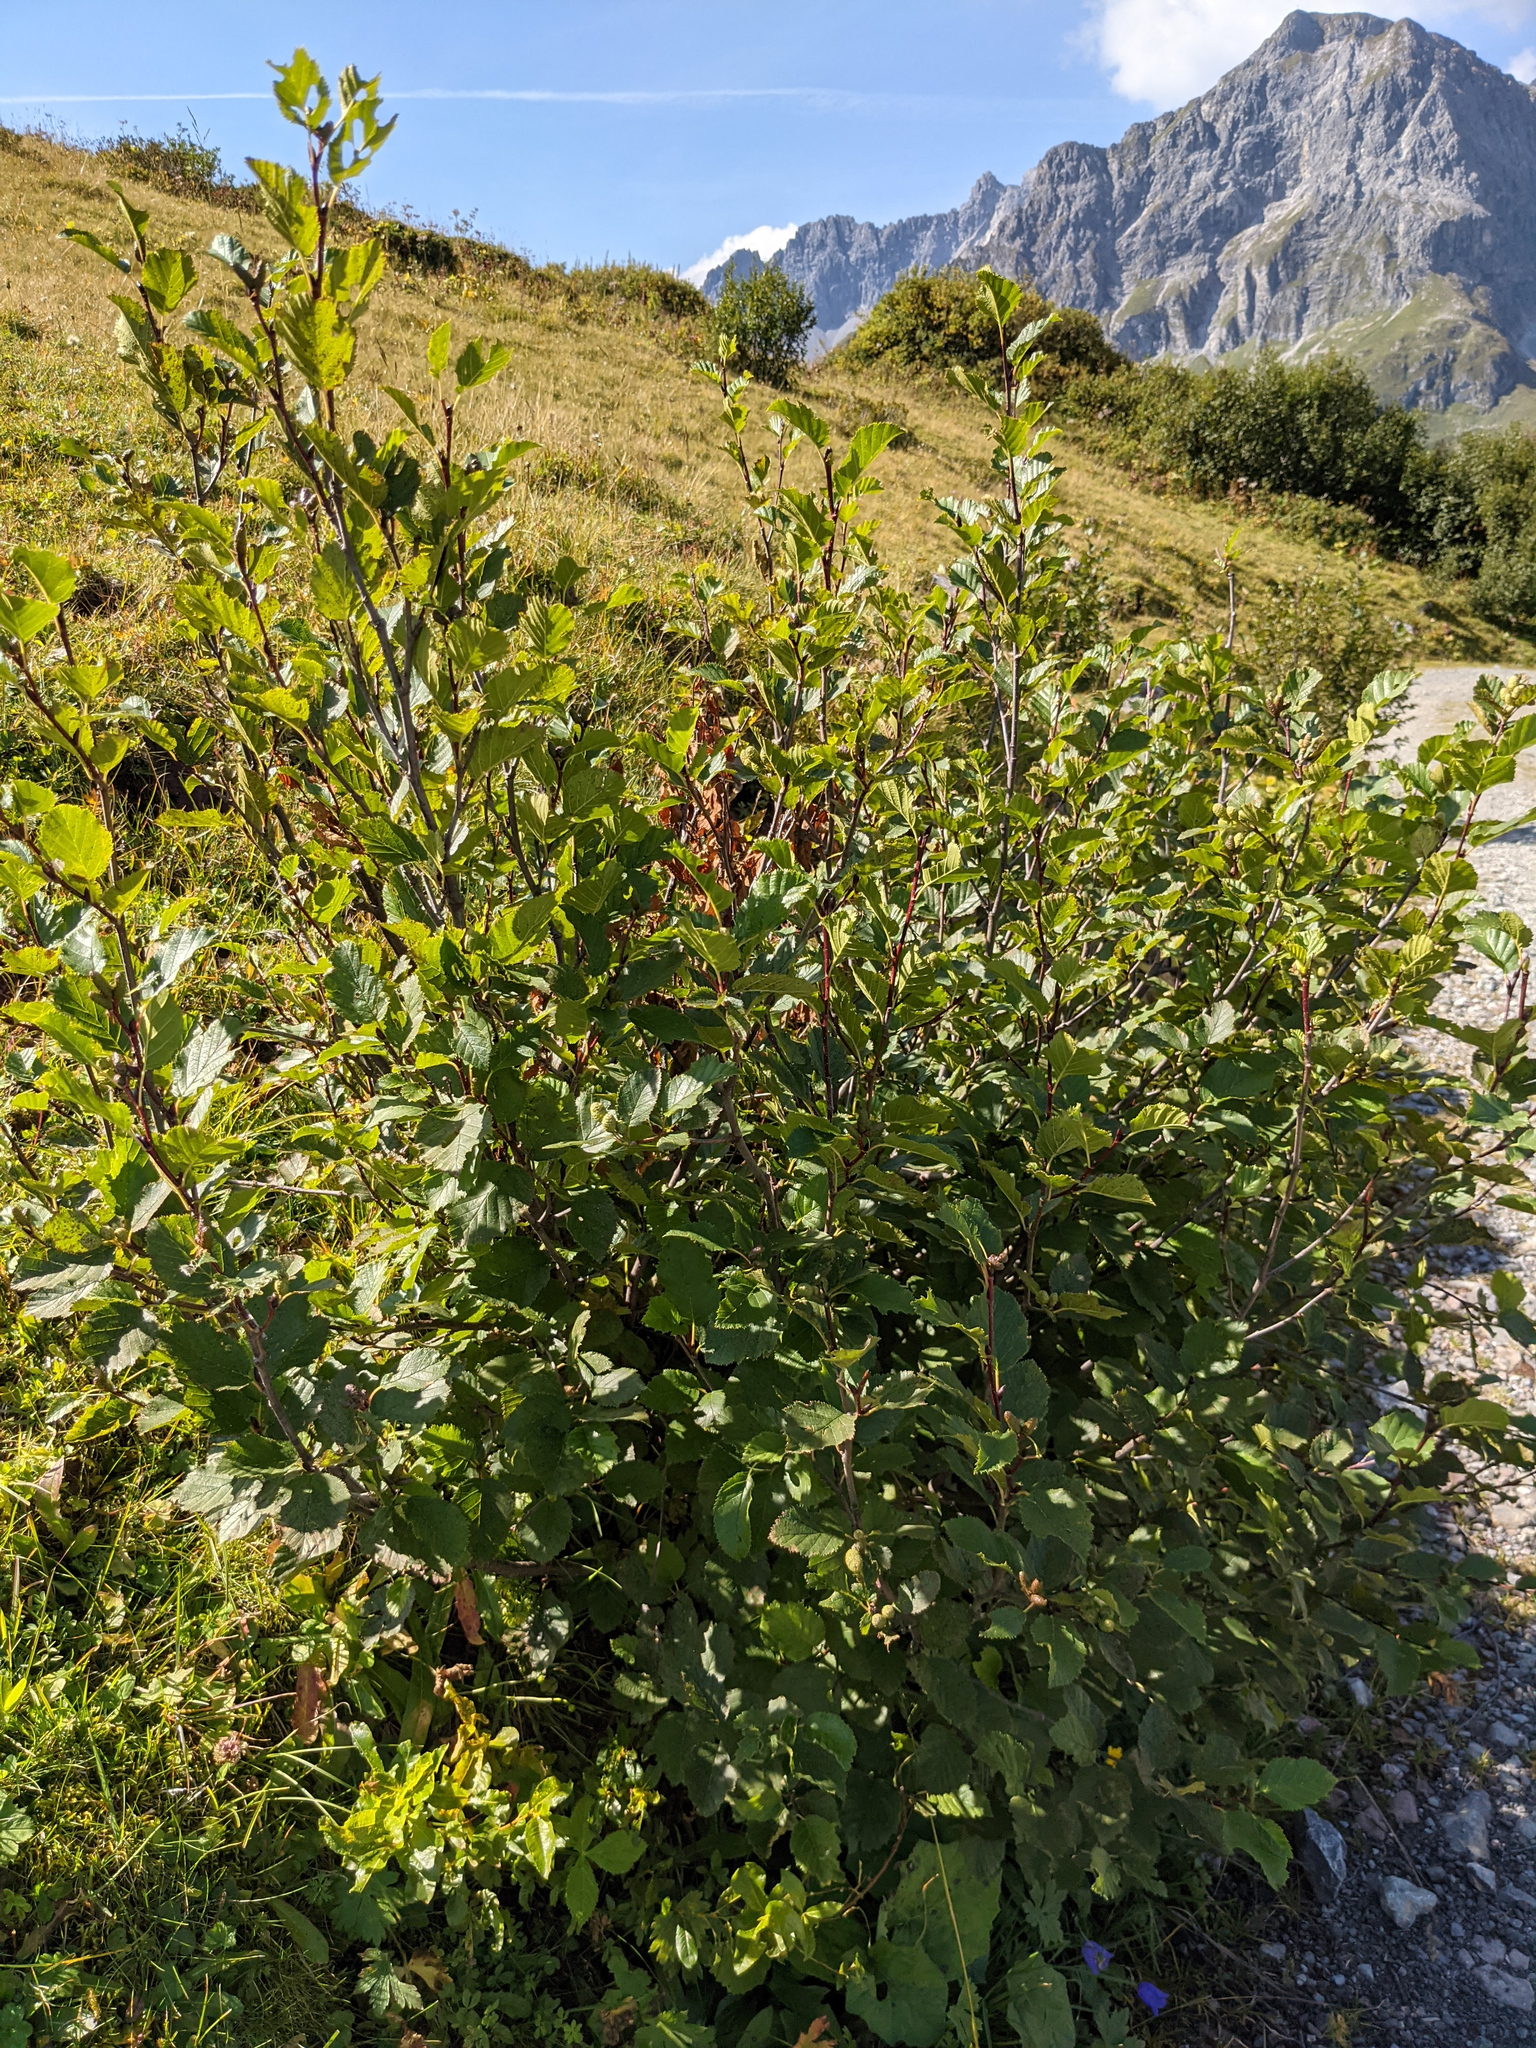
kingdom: Plantae
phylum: Tracheophyta
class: Magnoliopsida
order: Fagales
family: Betulaceae
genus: Alnus
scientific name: Alnus alnobetula
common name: Green alder
